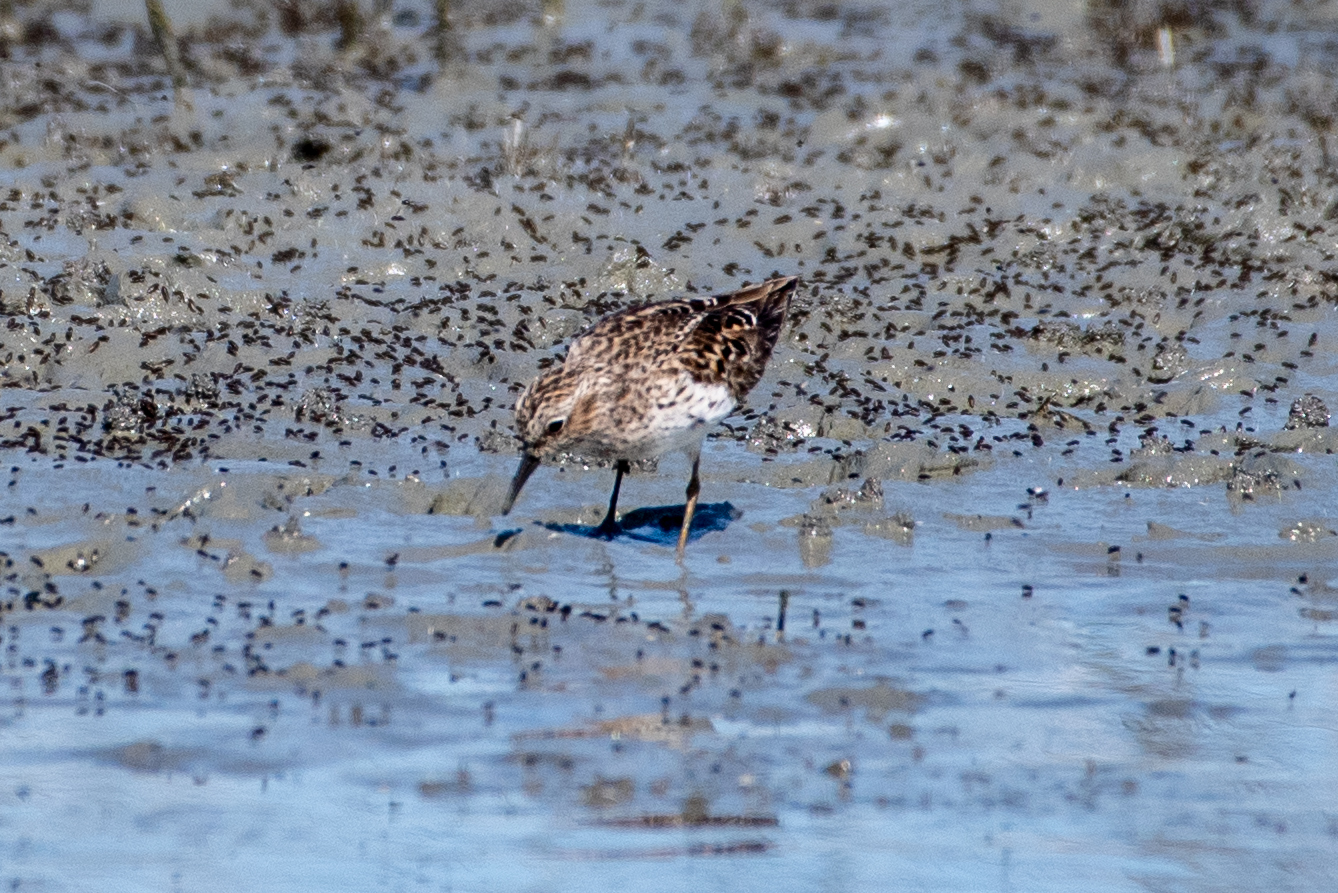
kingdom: Animalia
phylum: Chordata
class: Aves
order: Charadriiformes
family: Scolopacidae
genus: Calidris
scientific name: Calidris minutilla
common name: Least sandpiper
